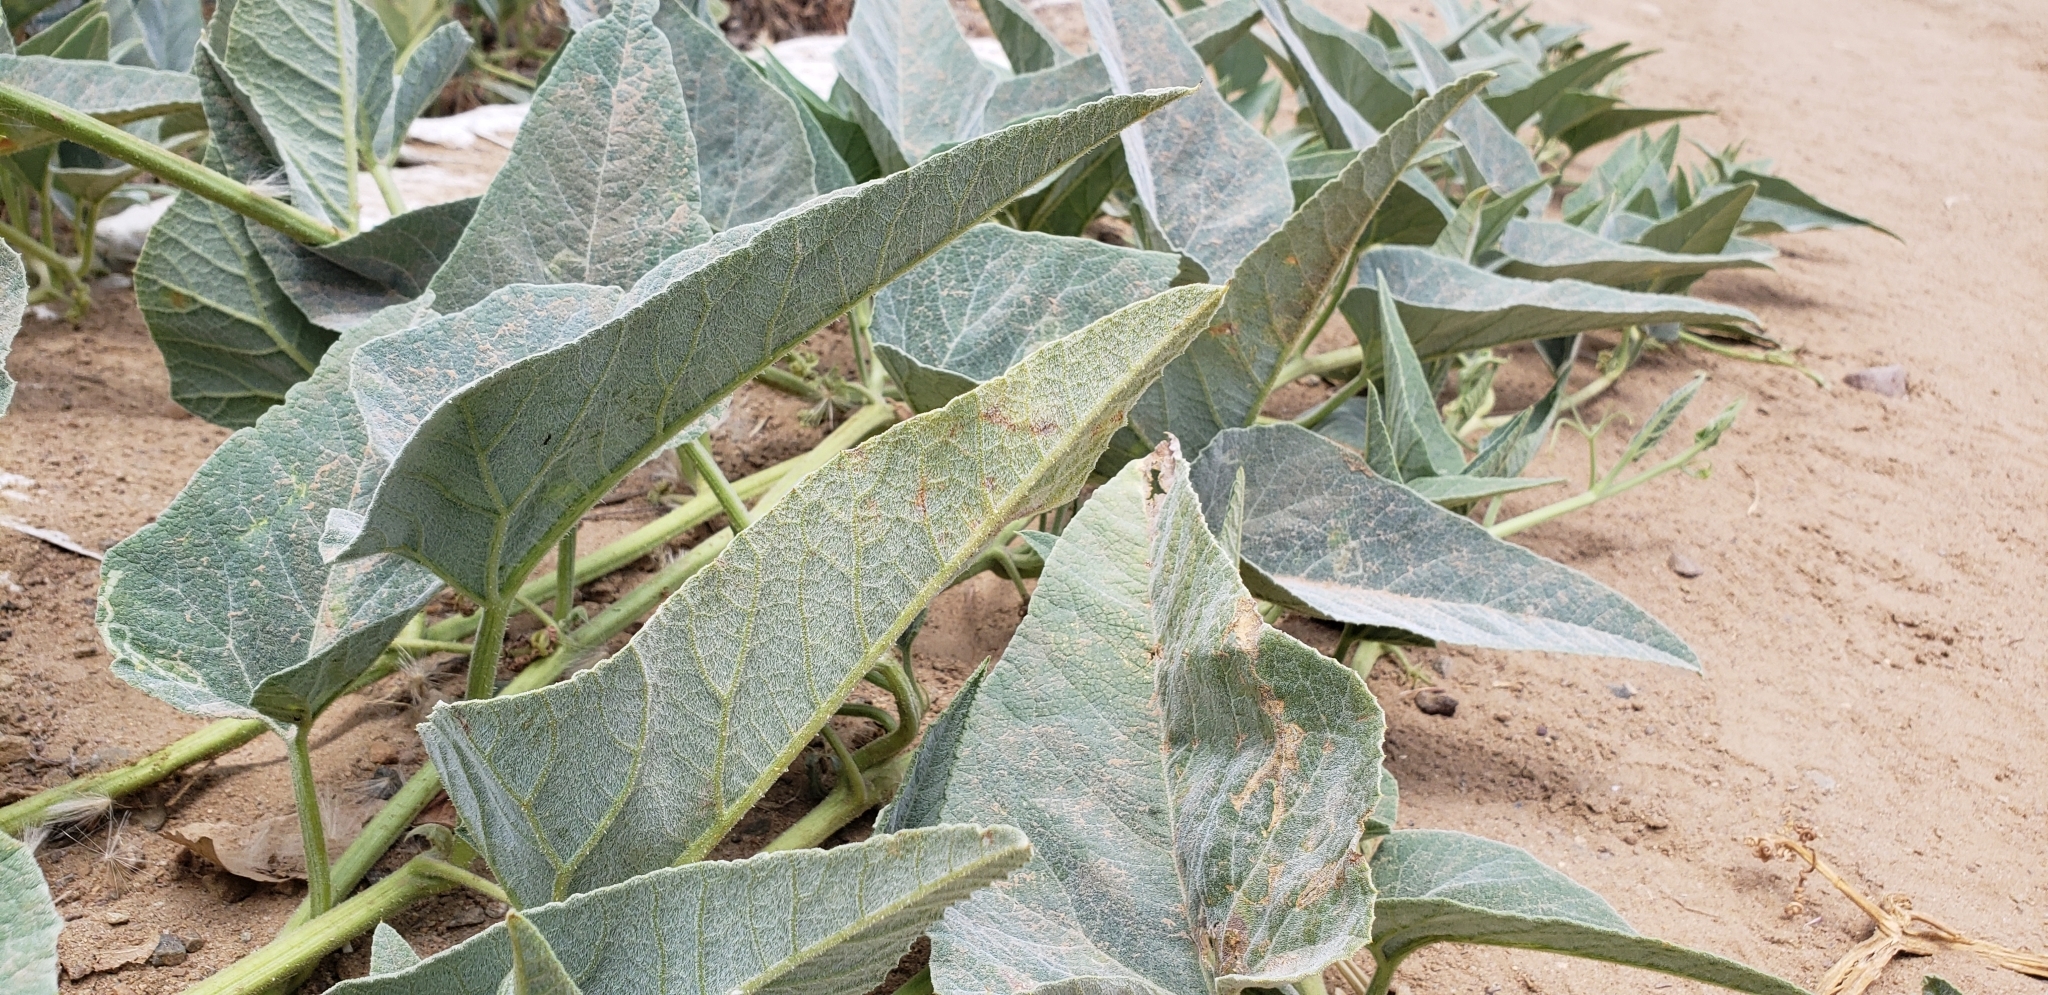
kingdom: Plantae
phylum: Tracheophyta
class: Magnoliopsida
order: Cucurbitales
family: Cucurbitaceae
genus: Cucurbita
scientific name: Cucurbita foetidissima
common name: Buffalo gourd
